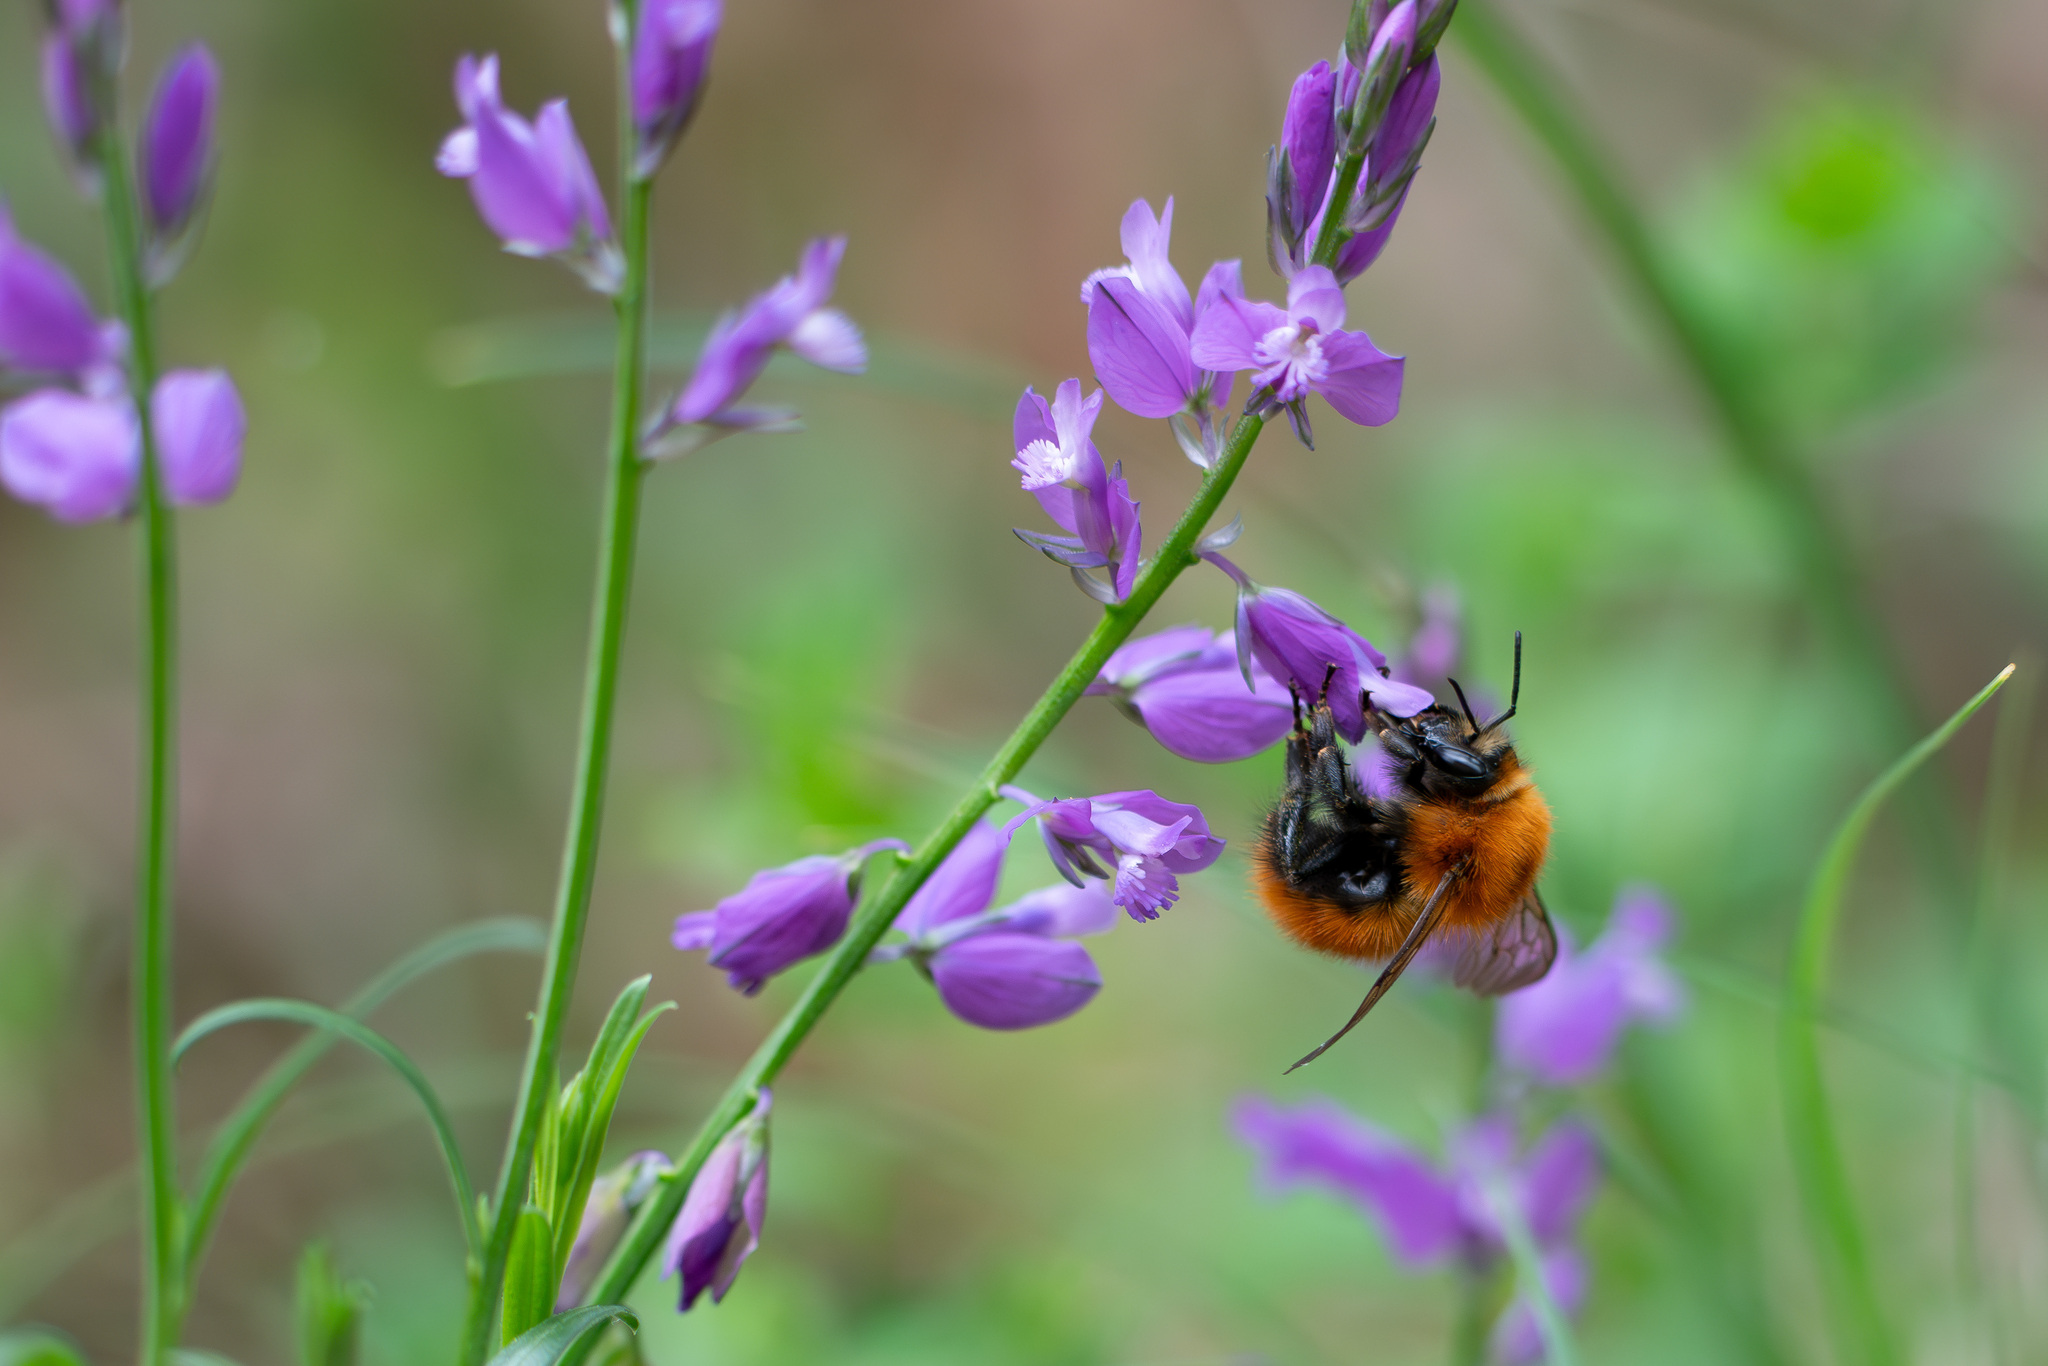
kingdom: Animalia
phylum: Arthropoda
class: Insecta
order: Hymenoptera
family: Apidae
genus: Bombus
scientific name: Bombus pascuorum
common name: Common carder bee
